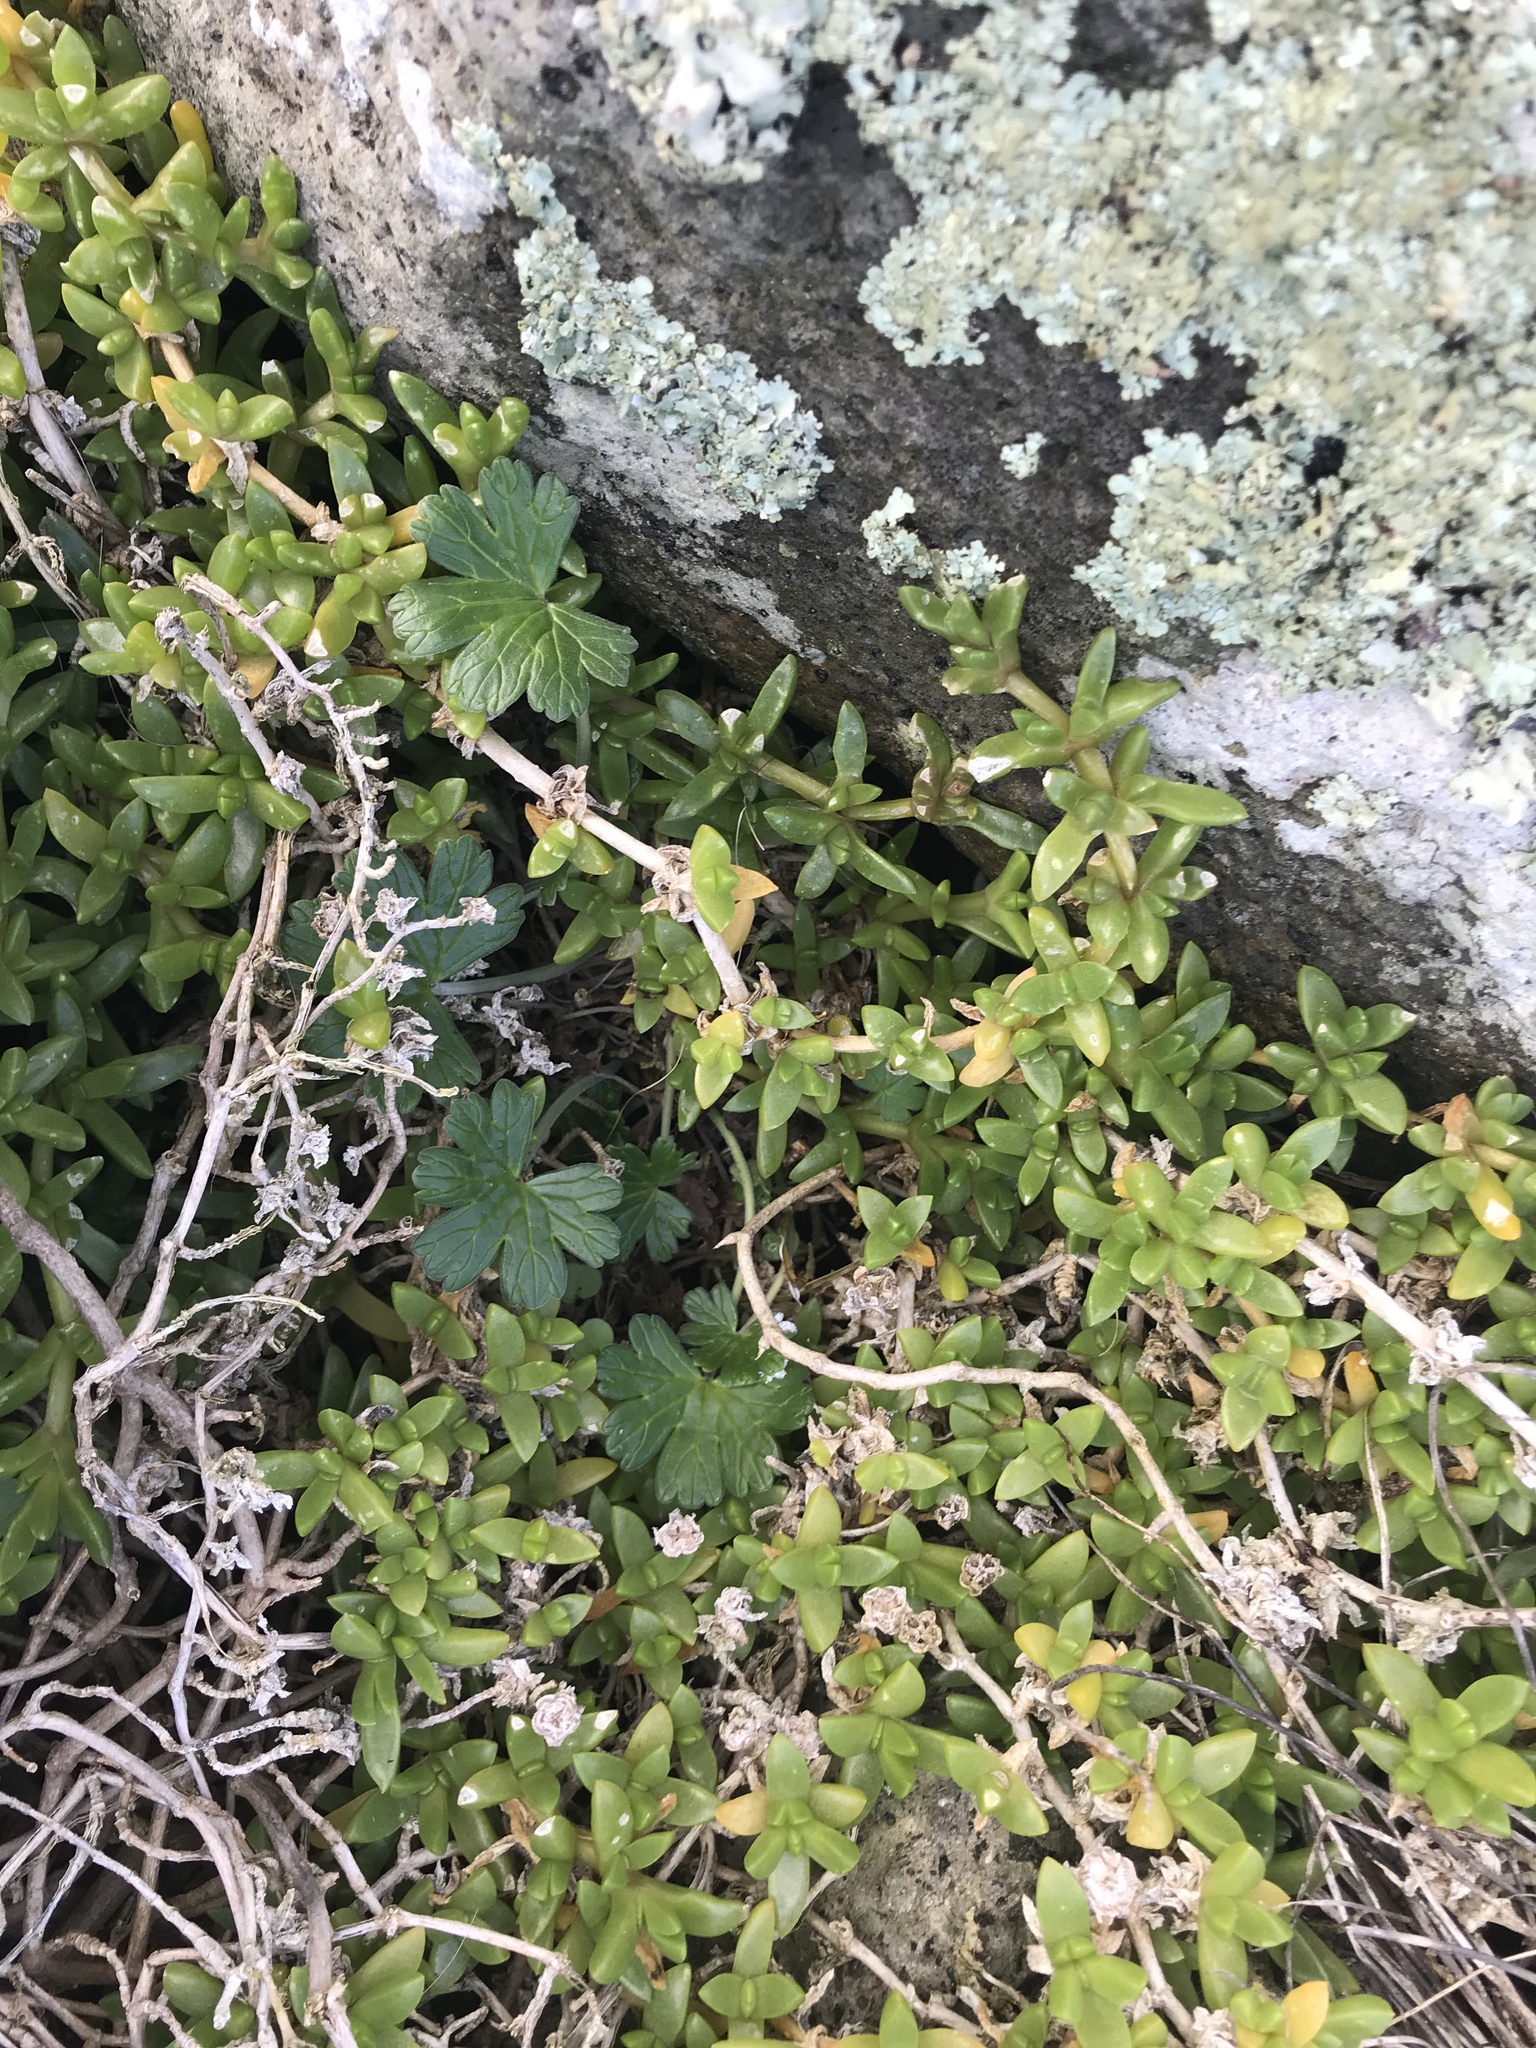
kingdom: Plantae
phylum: Tracheophyta
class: Magnoliopsida
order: Geraniales
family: Geraniaceae
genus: Geranium
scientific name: Geranium traversii
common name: Cranesbill
